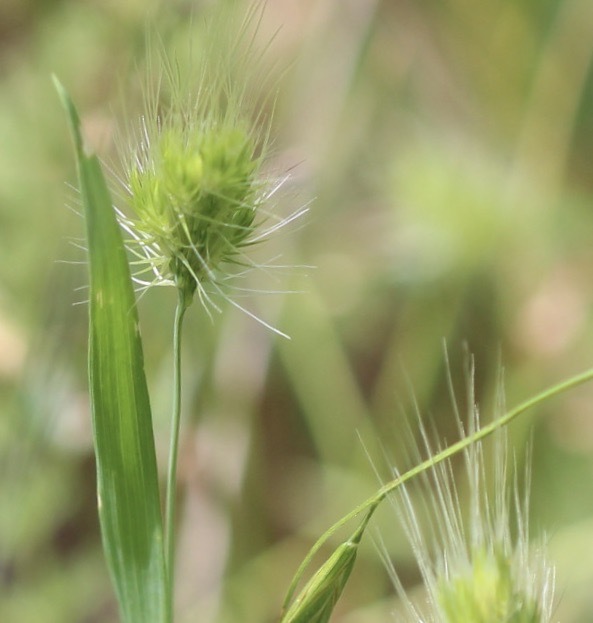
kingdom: Plantae
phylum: Tracheophyta
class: Liliopsida
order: Poales
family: Poaceae
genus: Cynosurus
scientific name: Cynosurus echinatus
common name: Rough dog's-tail
